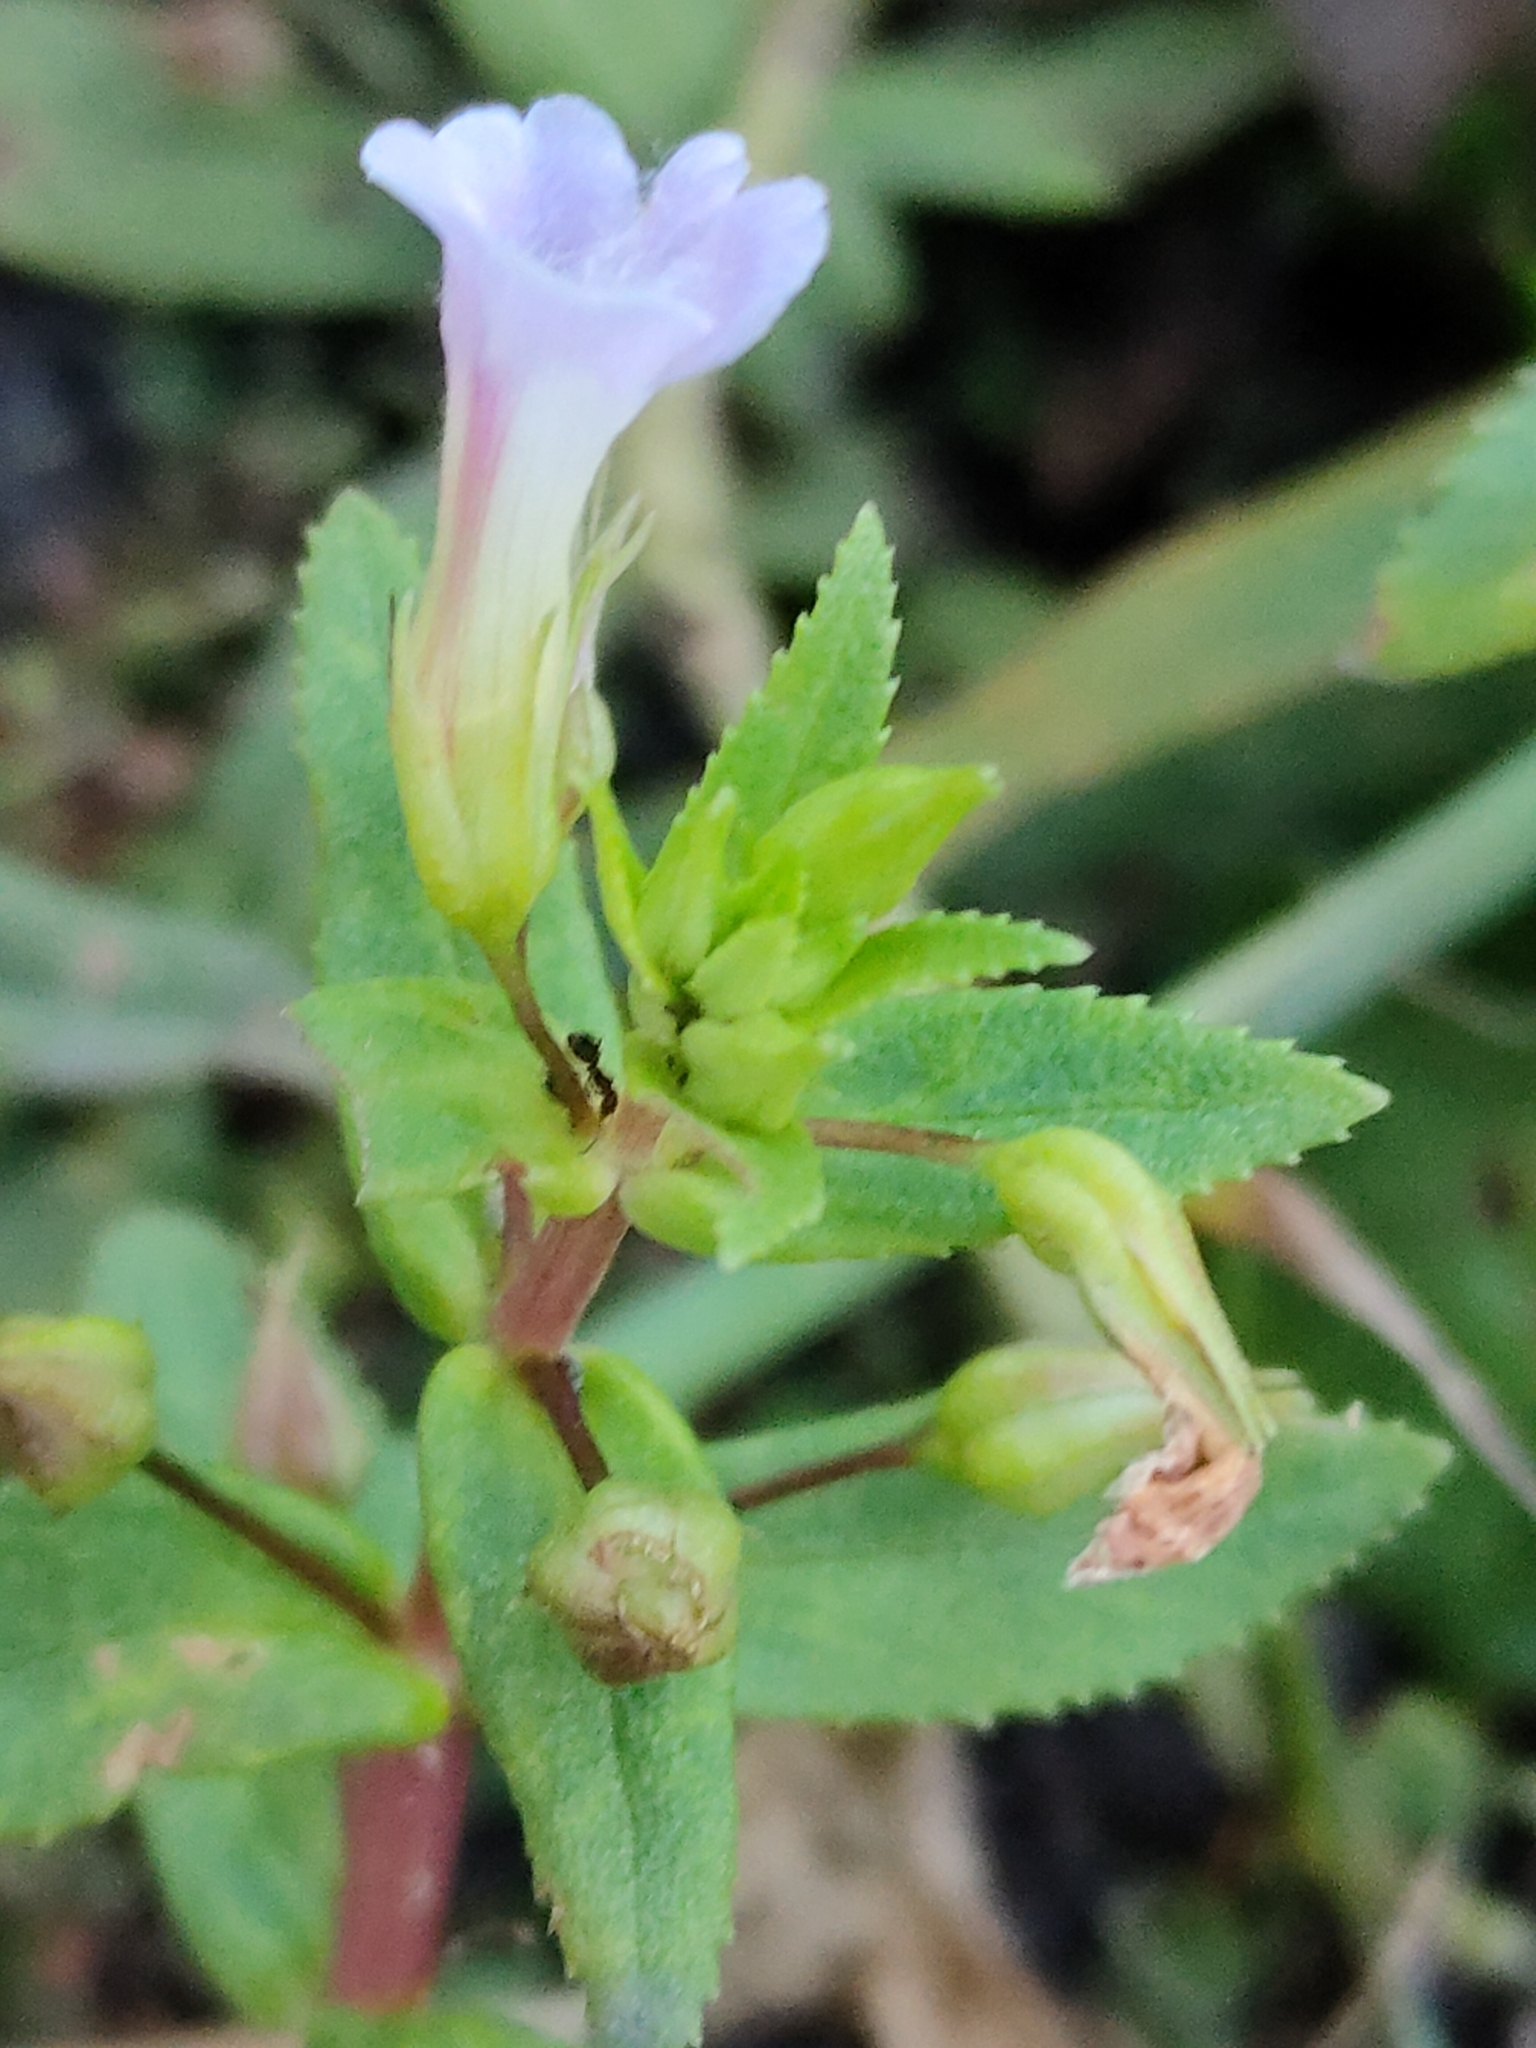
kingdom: Plantae
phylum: Tracheophyta
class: Magnoliopsida
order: Lamiales
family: Plantaginaceae
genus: Limnophila
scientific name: Limnophila aromatica
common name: Finger grass
